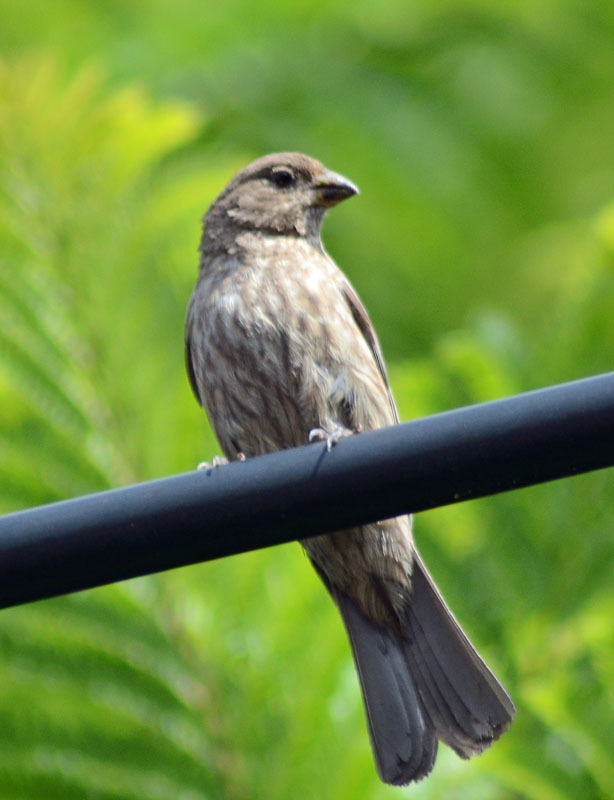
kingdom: Animalia
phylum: Chordata
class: Aves
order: Passeriformes
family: Fringillidae
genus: Haemorhous
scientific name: Haemorhous mexicanus
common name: House finch
